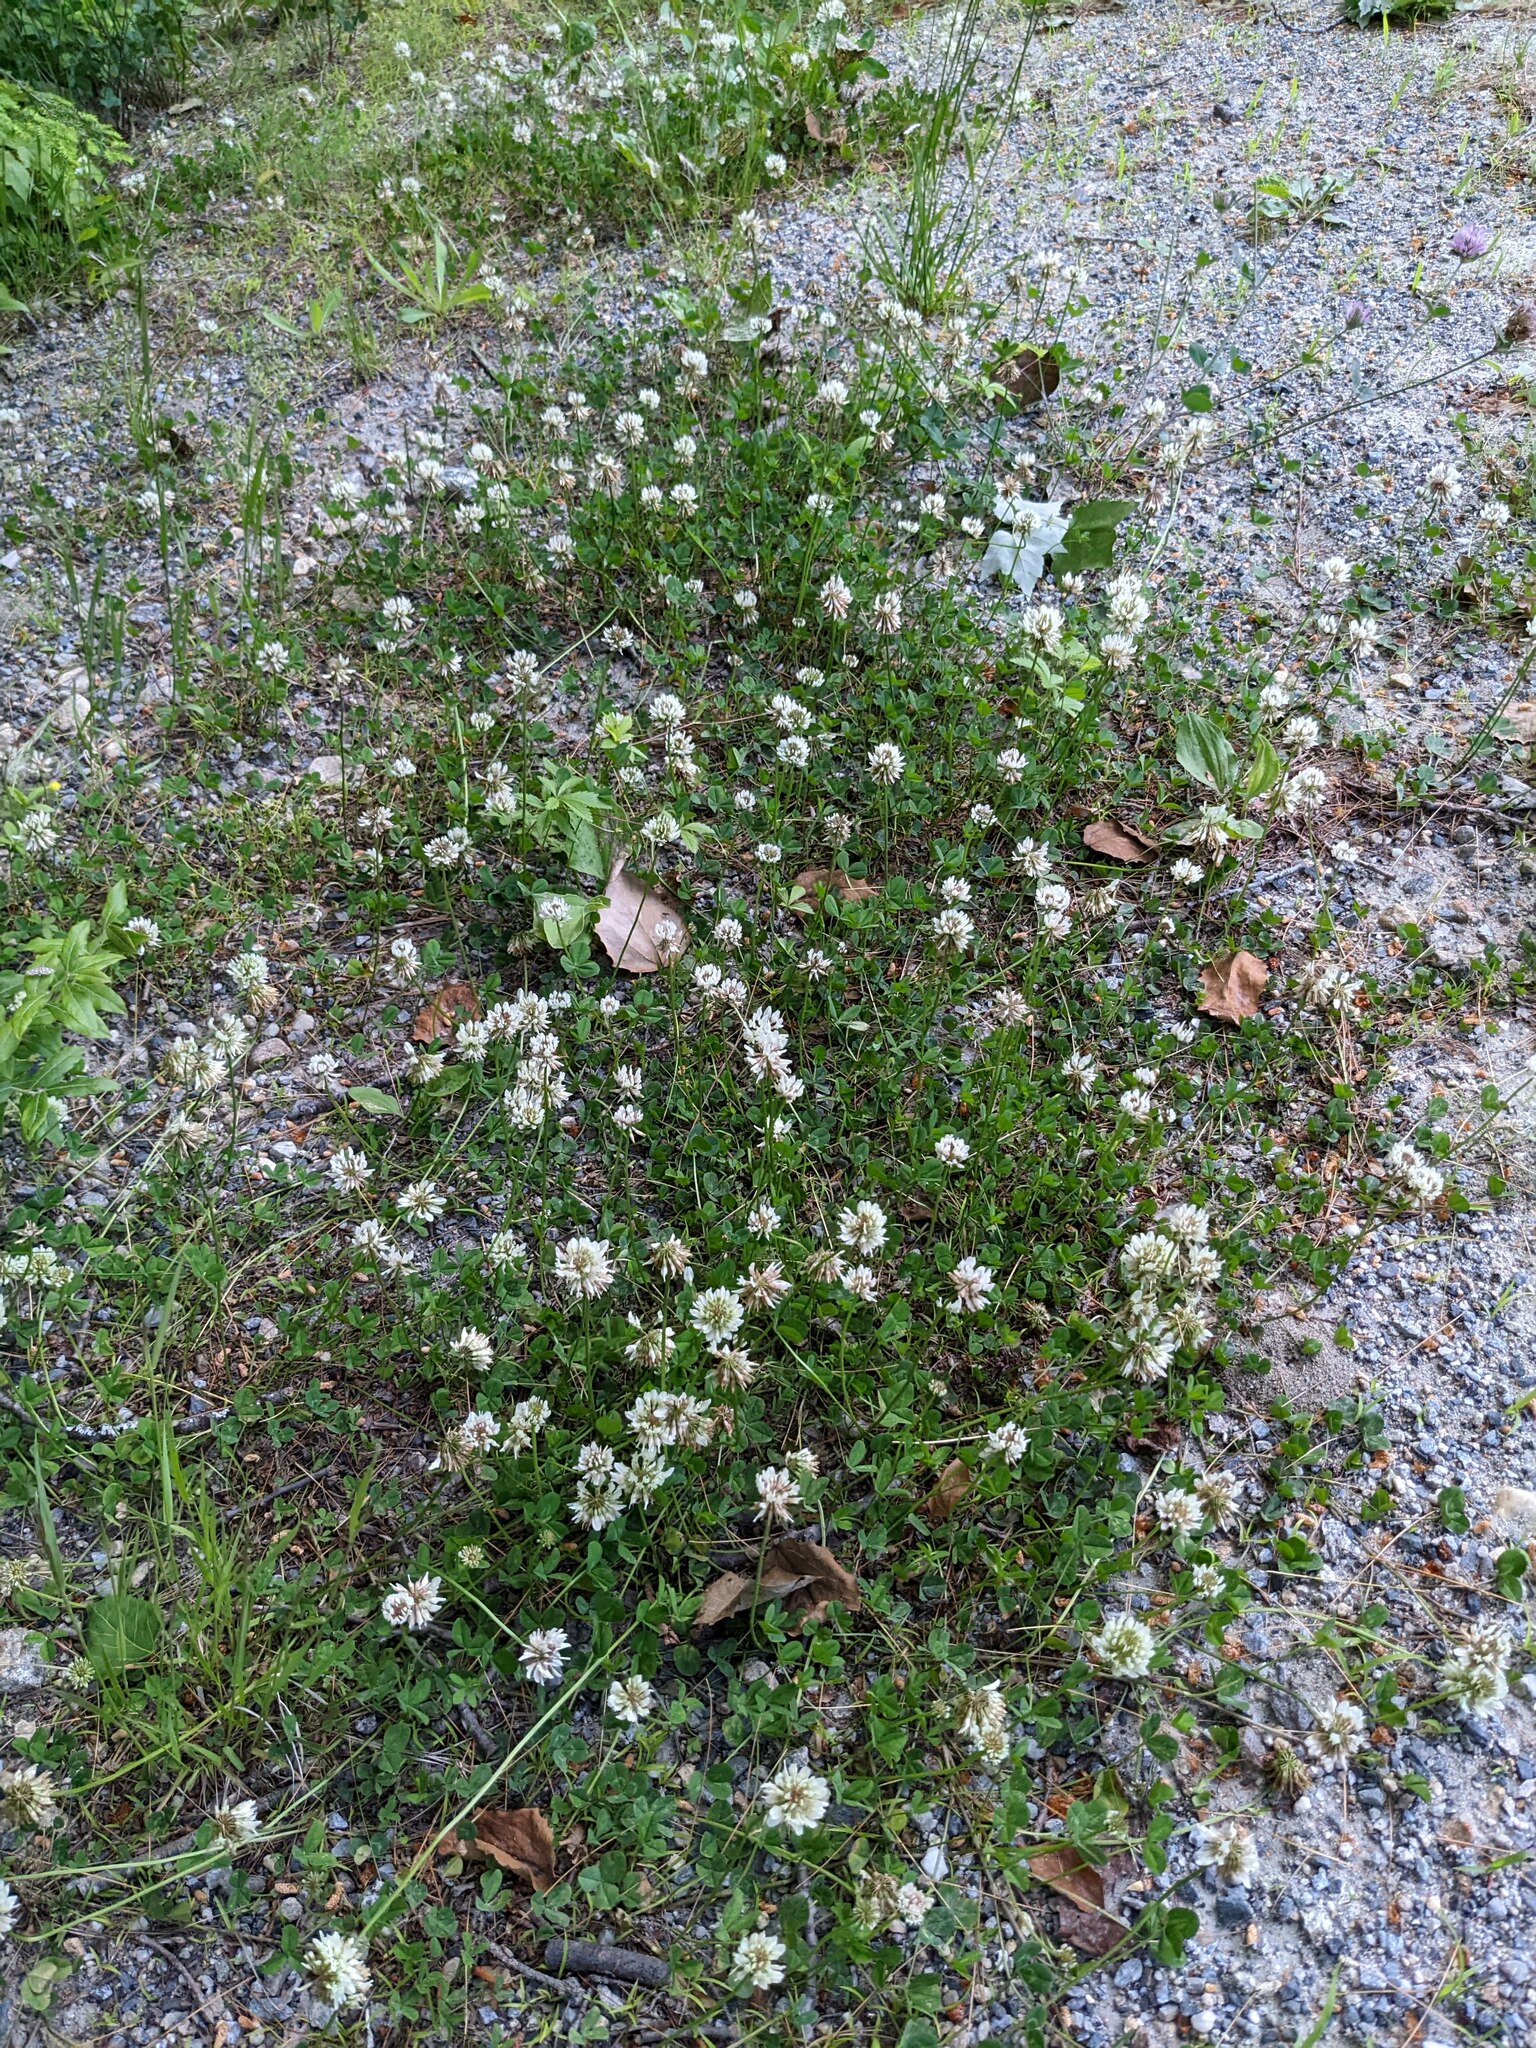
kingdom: Plantae
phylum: Tracheophyta
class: Magnoliopsida
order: Fabales
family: Fabaceae
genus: Trifolium
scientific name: Trifolium repens
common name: White clover
